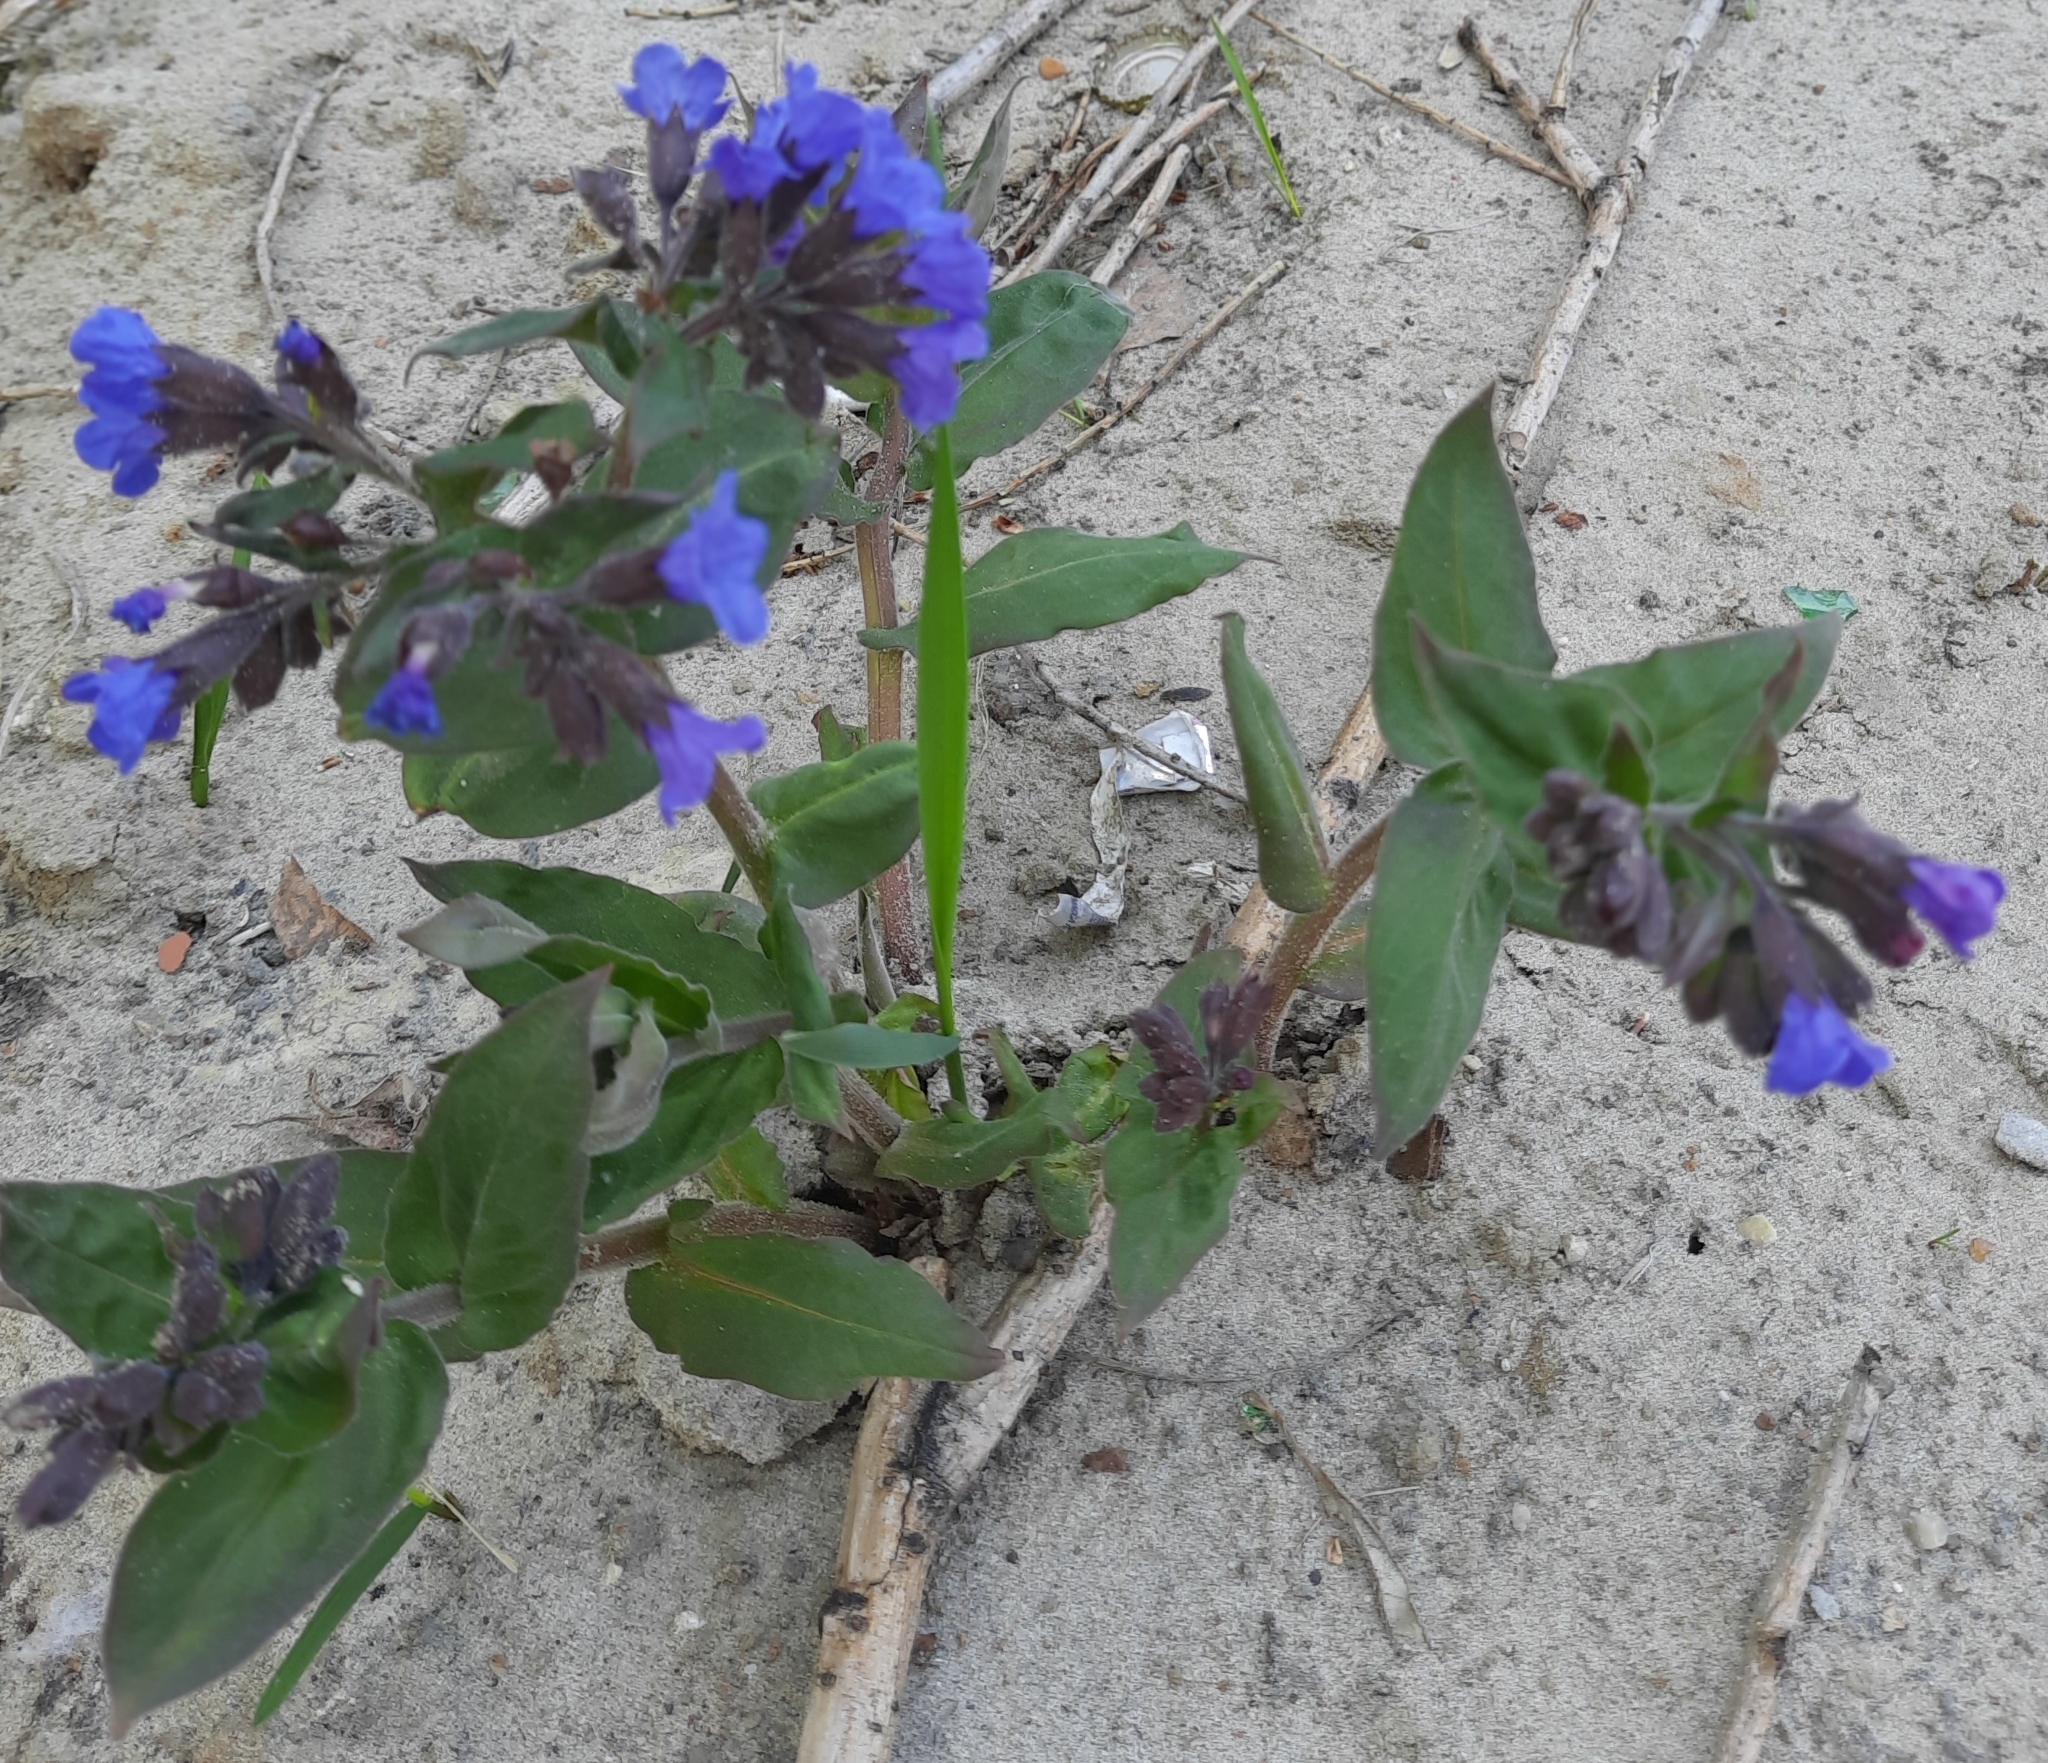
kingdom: Plantae
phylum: Tracheophyta
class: Magnoliopsida
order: Boraginales
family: Boraginaceae
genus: Pulmonaria
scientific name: Pulmonaria mollis
